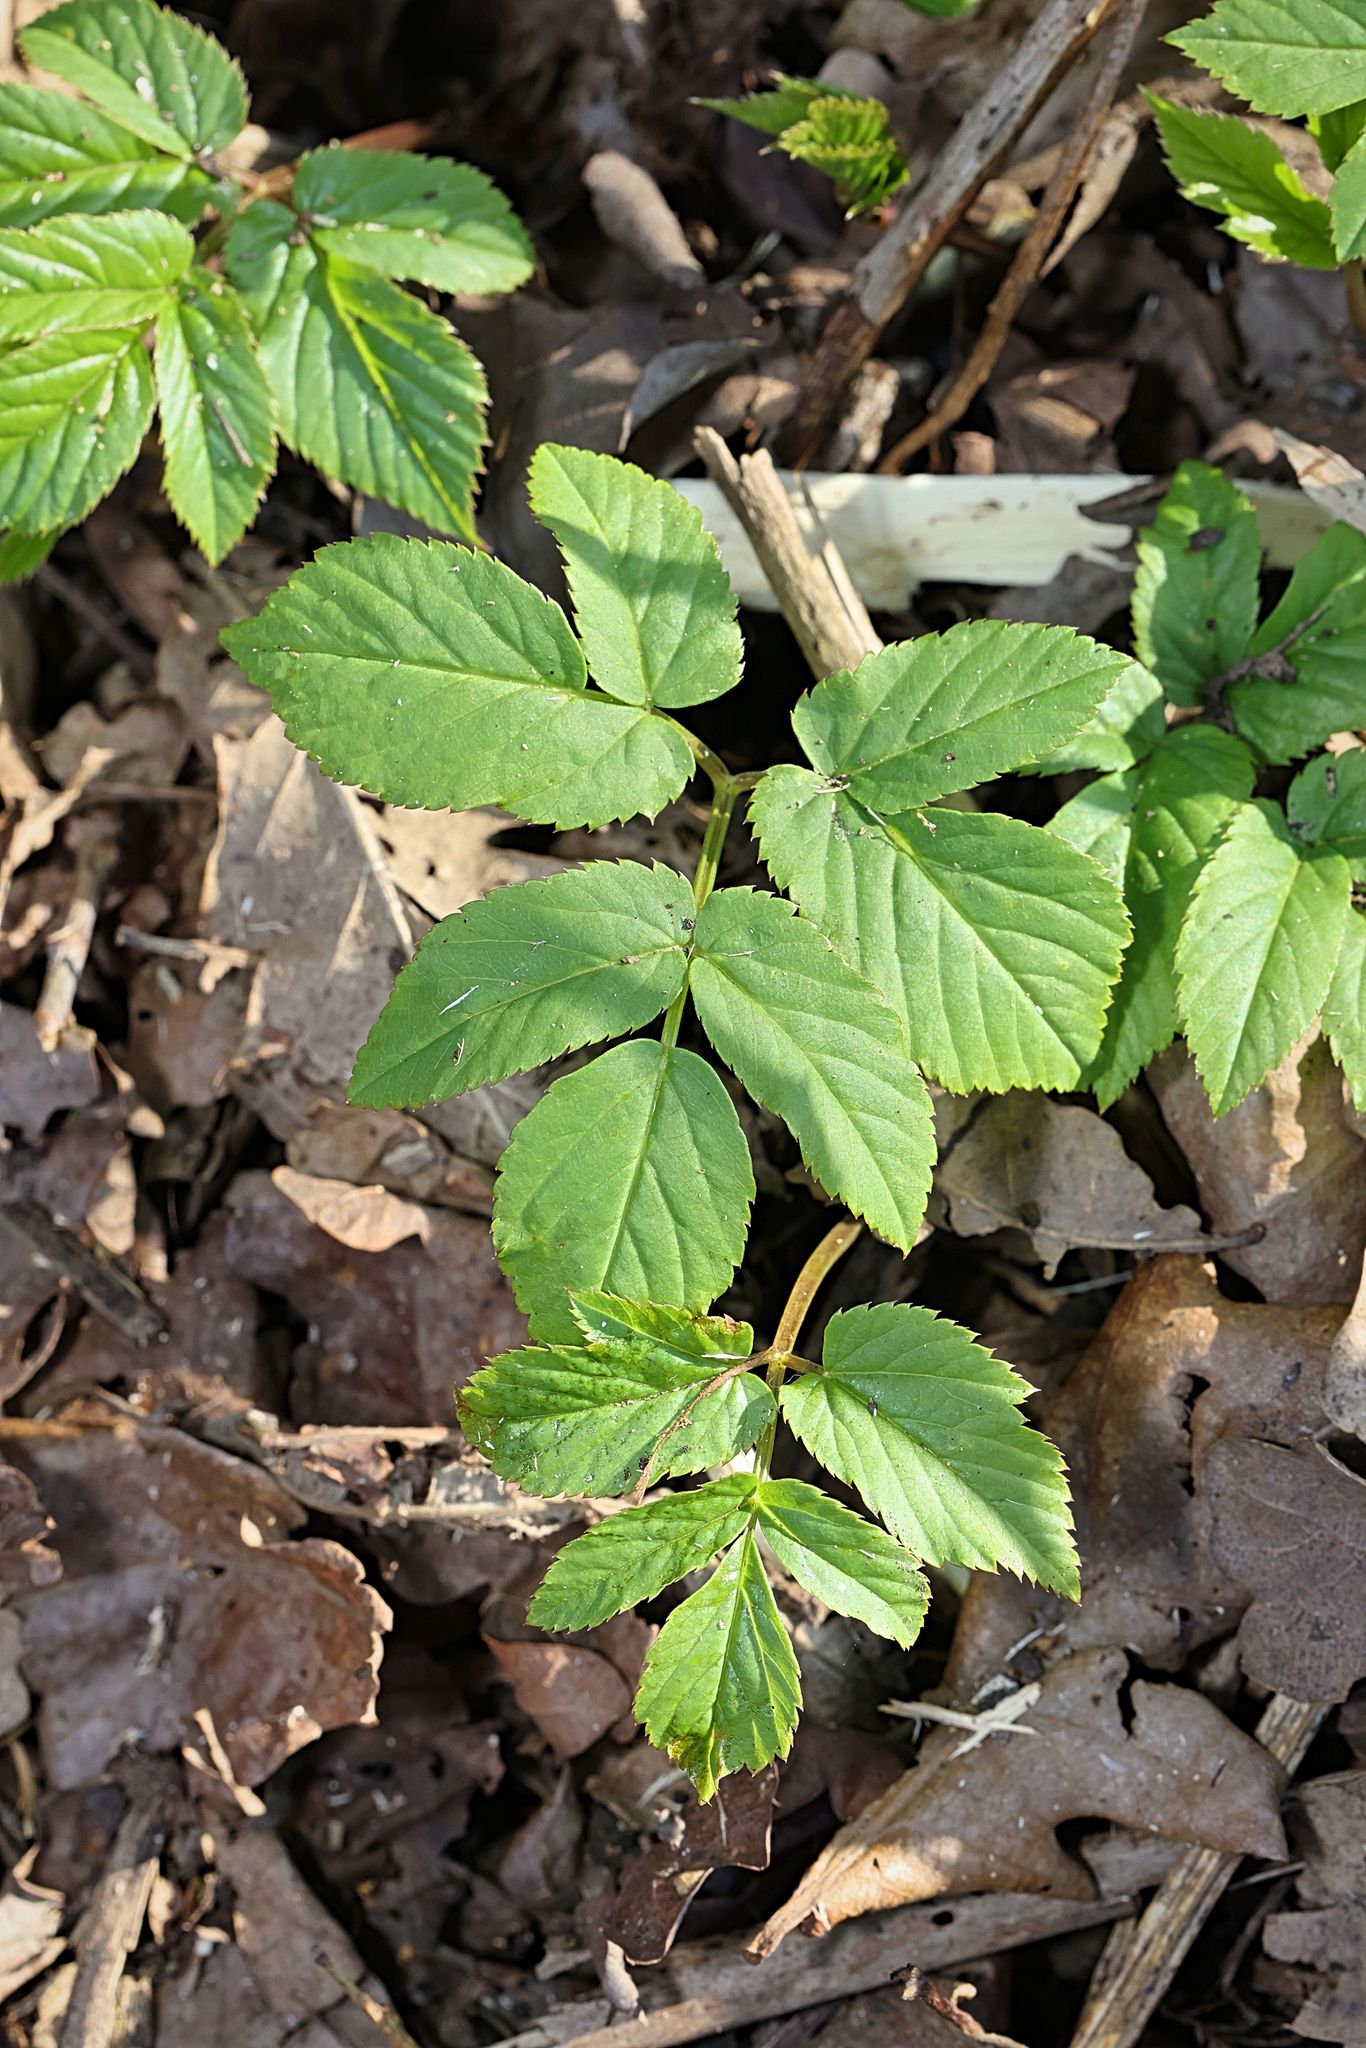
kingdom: Plantae
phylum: Tracheophyta
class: Magnoliopsida
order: Apiales
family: Apiaceae
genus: Aegopodium
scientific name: Aegopodium podagraria
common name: Ground-elder
